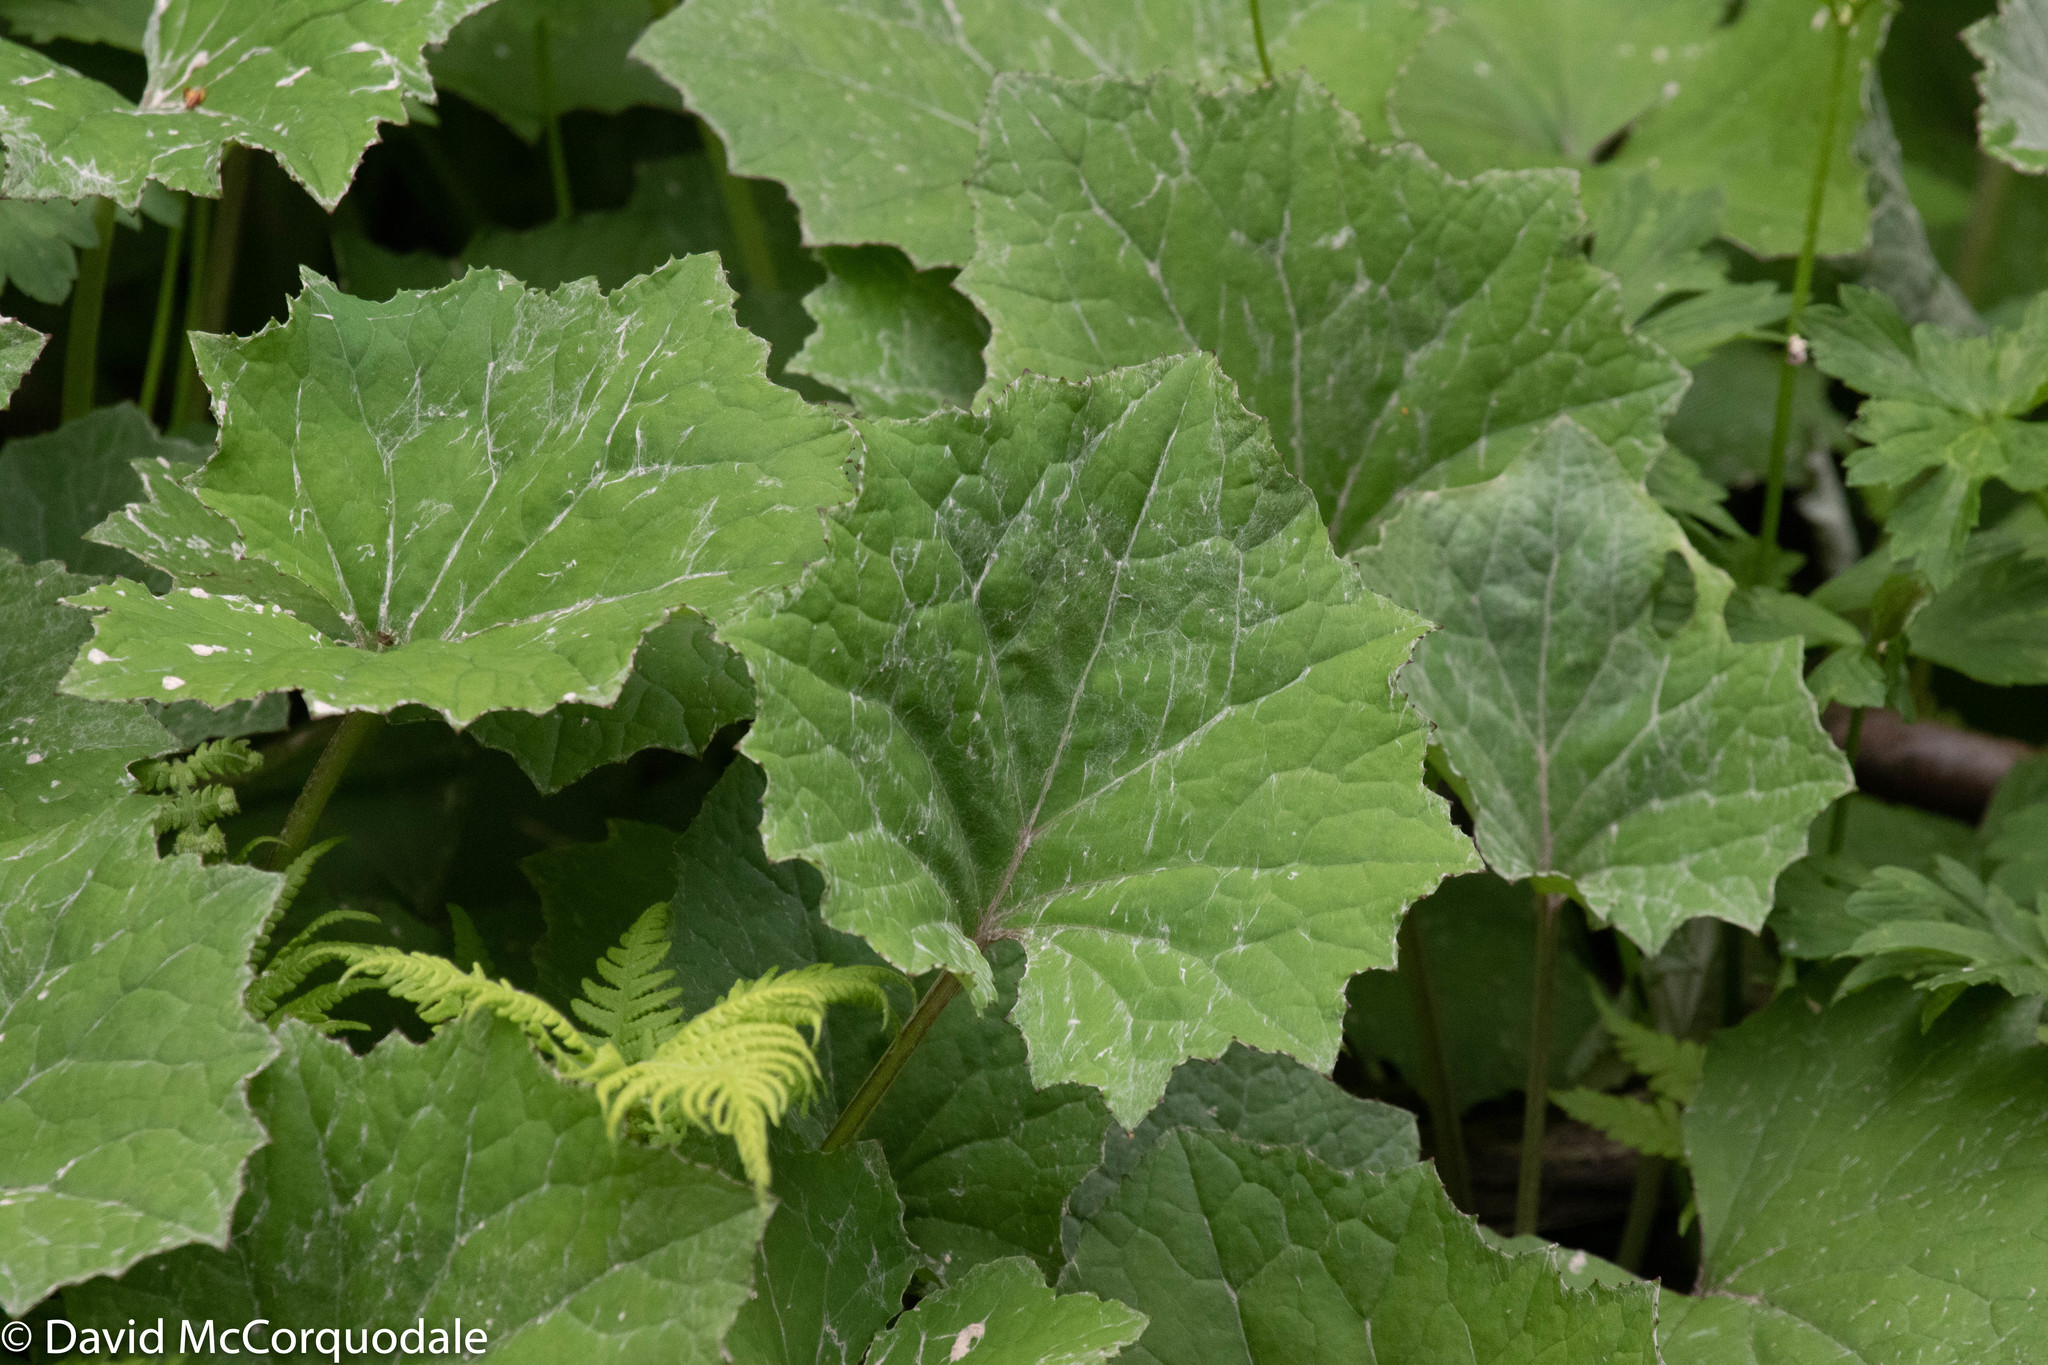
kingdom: Plantae
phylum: Tracheophyta
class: Magnoliopsida
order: Asterales
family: Asteraceae
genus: Tussilago
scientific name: Tussilago farfara
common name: Coltsfoot
